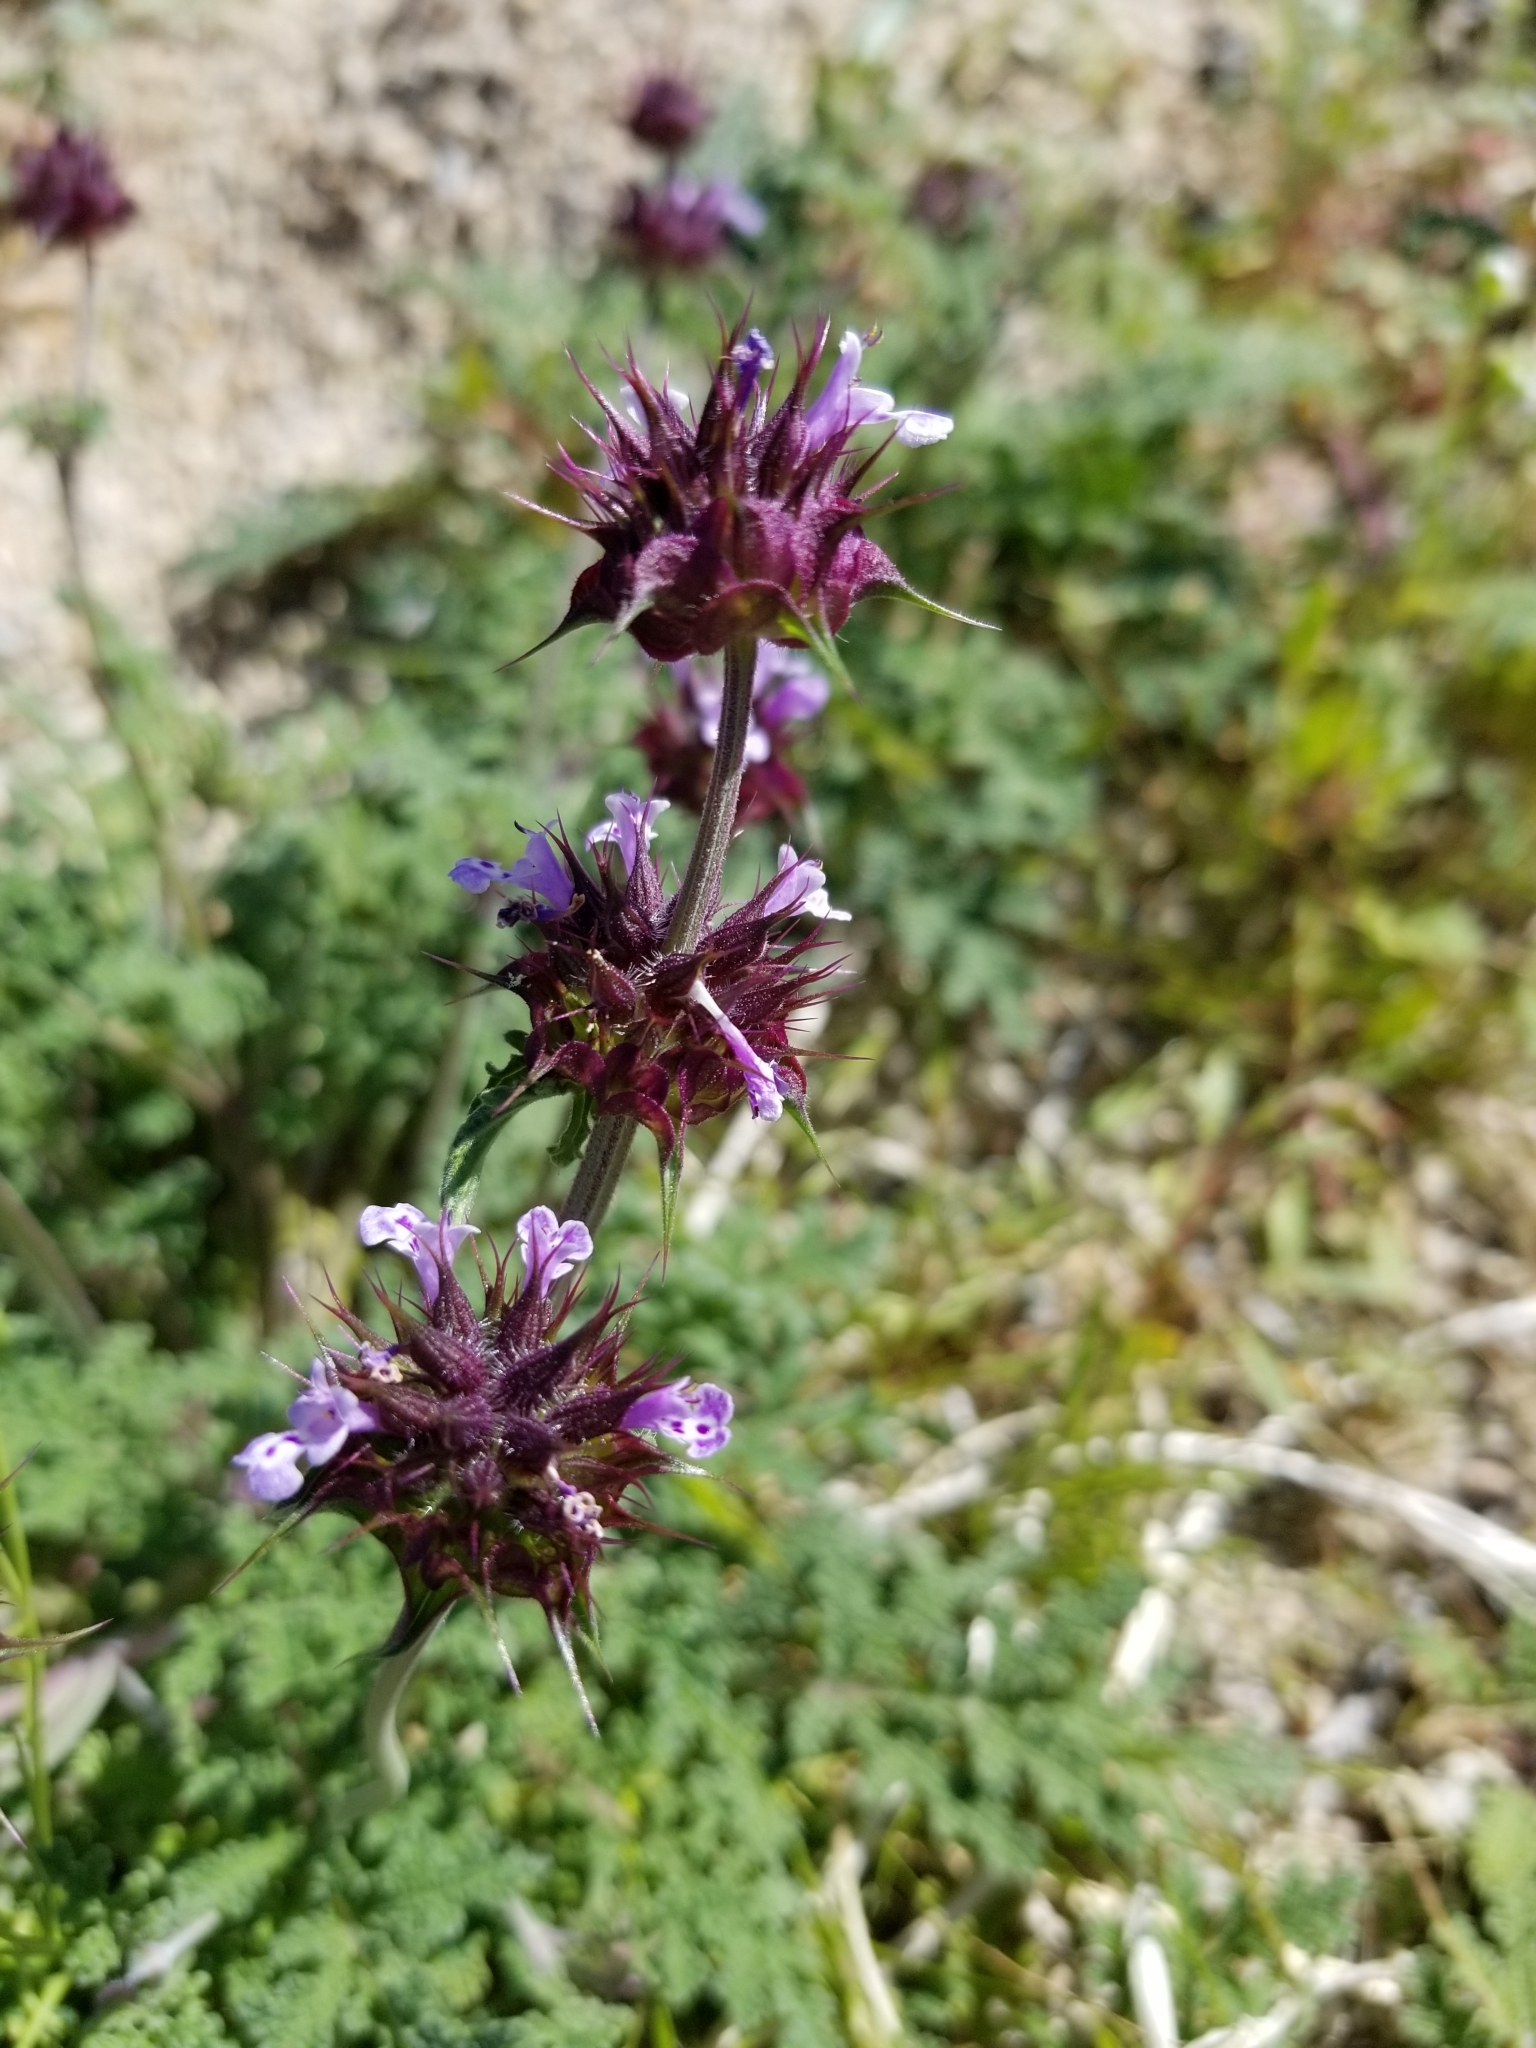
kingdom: Plantae
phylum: Tracheophyta
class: Magnoliopsida
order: Lamiales
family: Lamiaceae
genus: Salvia
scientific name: Salvia columbariae
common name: Chia
